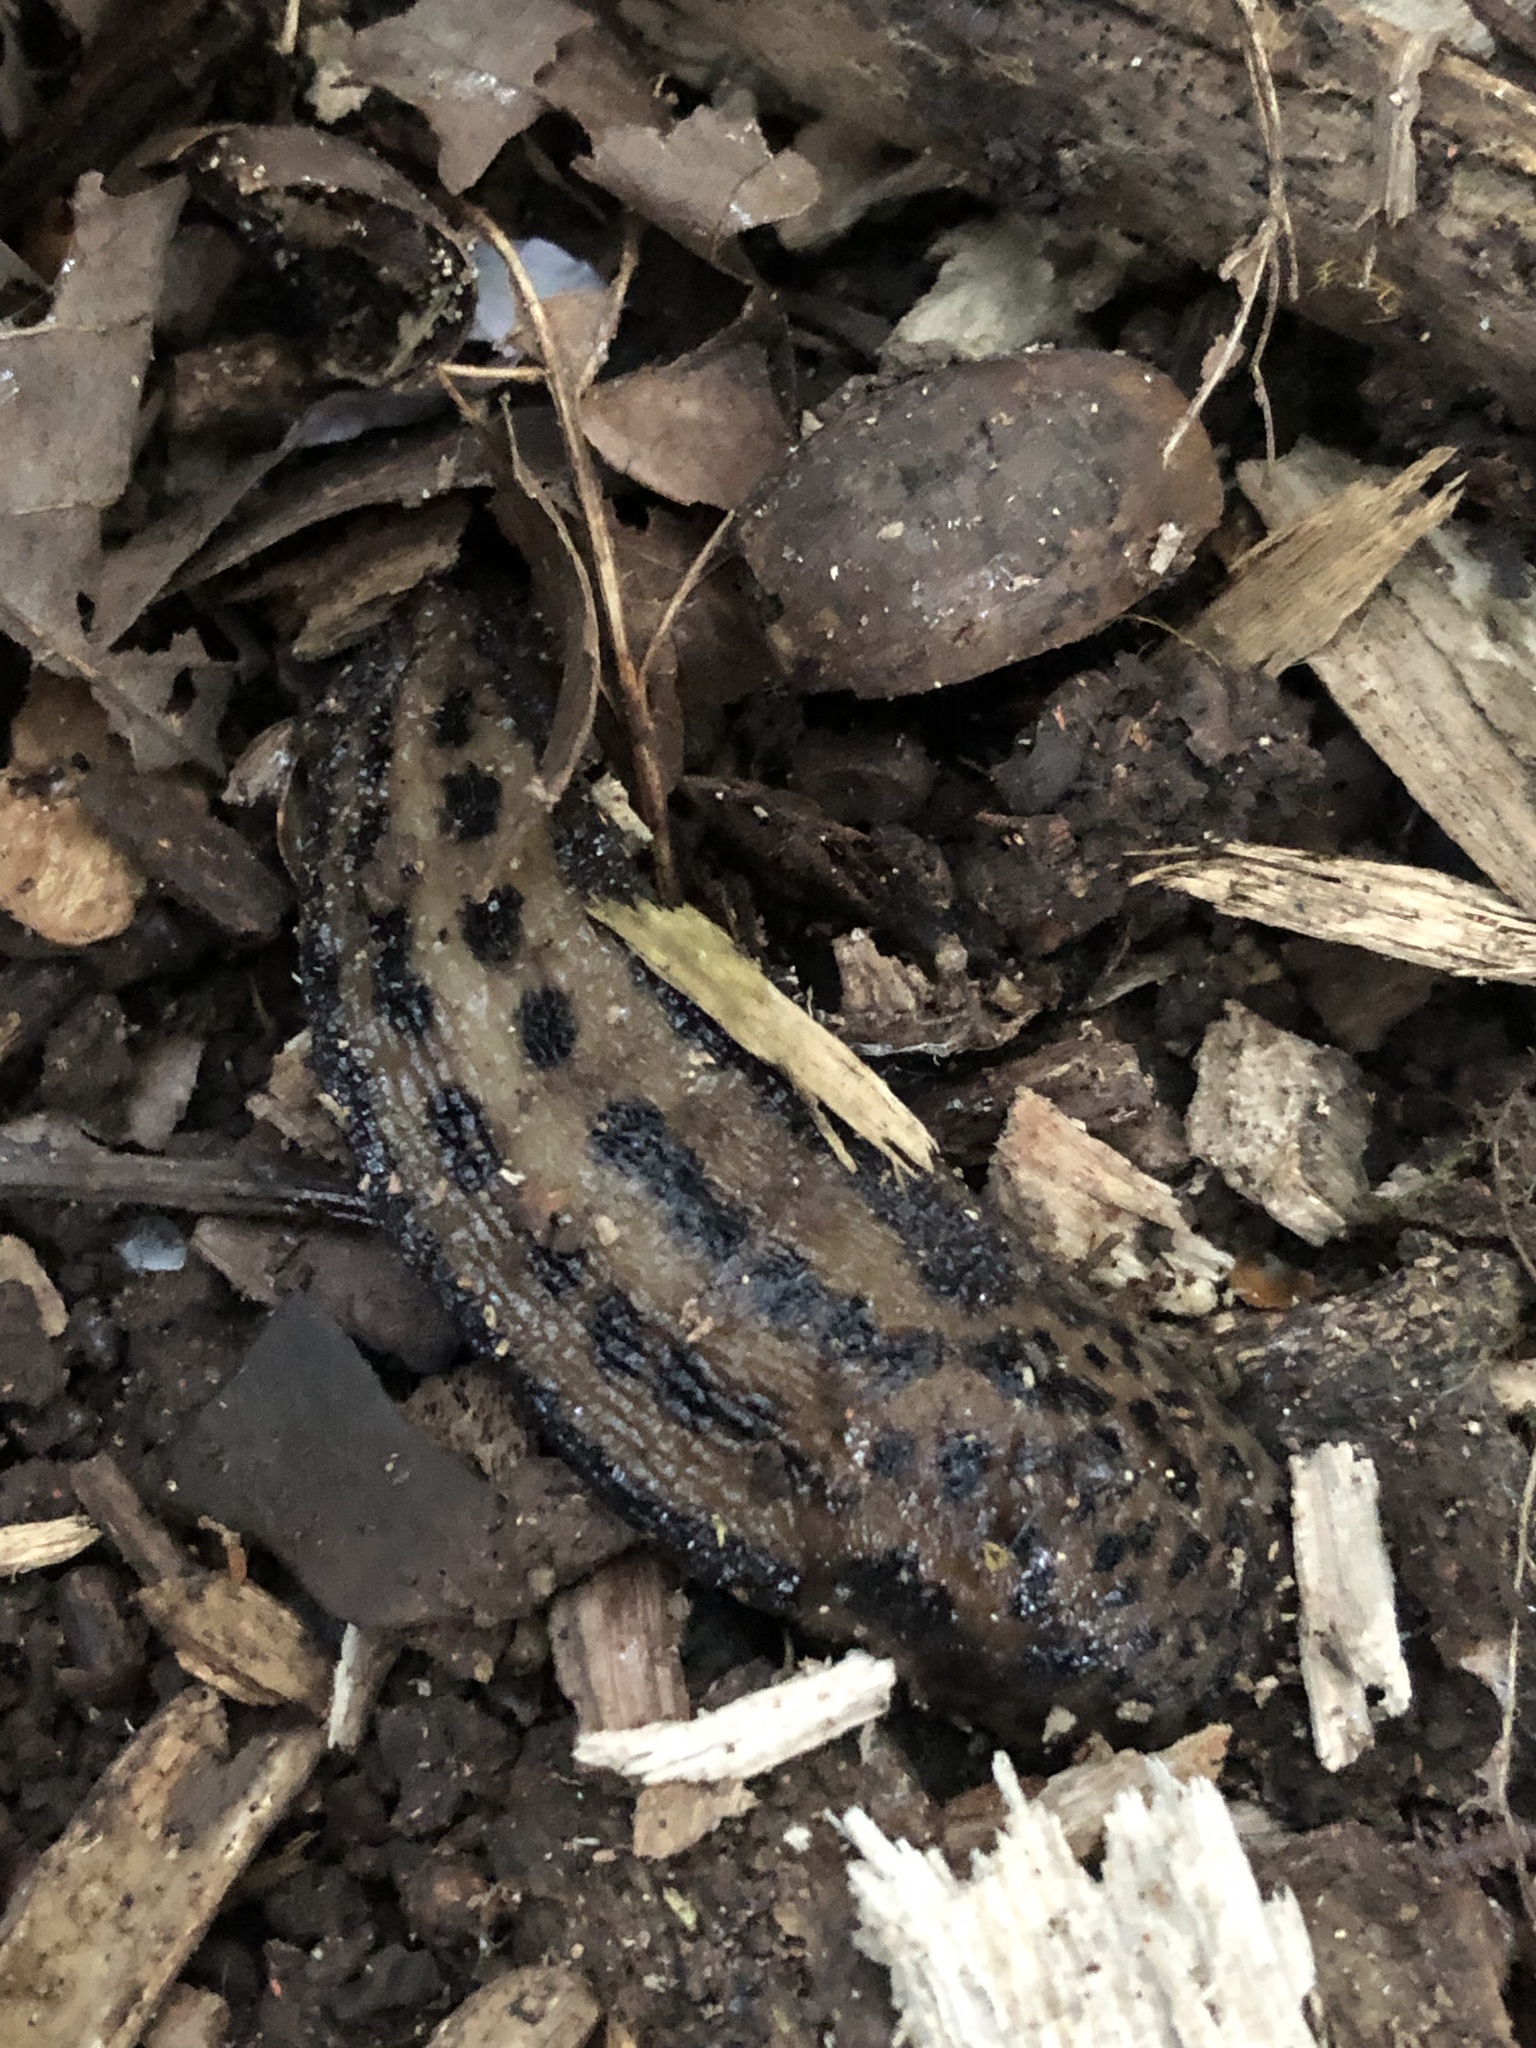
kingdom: Animalia
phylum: Mollusca
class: Gastropoda
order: Stylommatophora
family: Limacidae
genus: Limax
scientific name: Limax maximus
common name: Great grey slug
